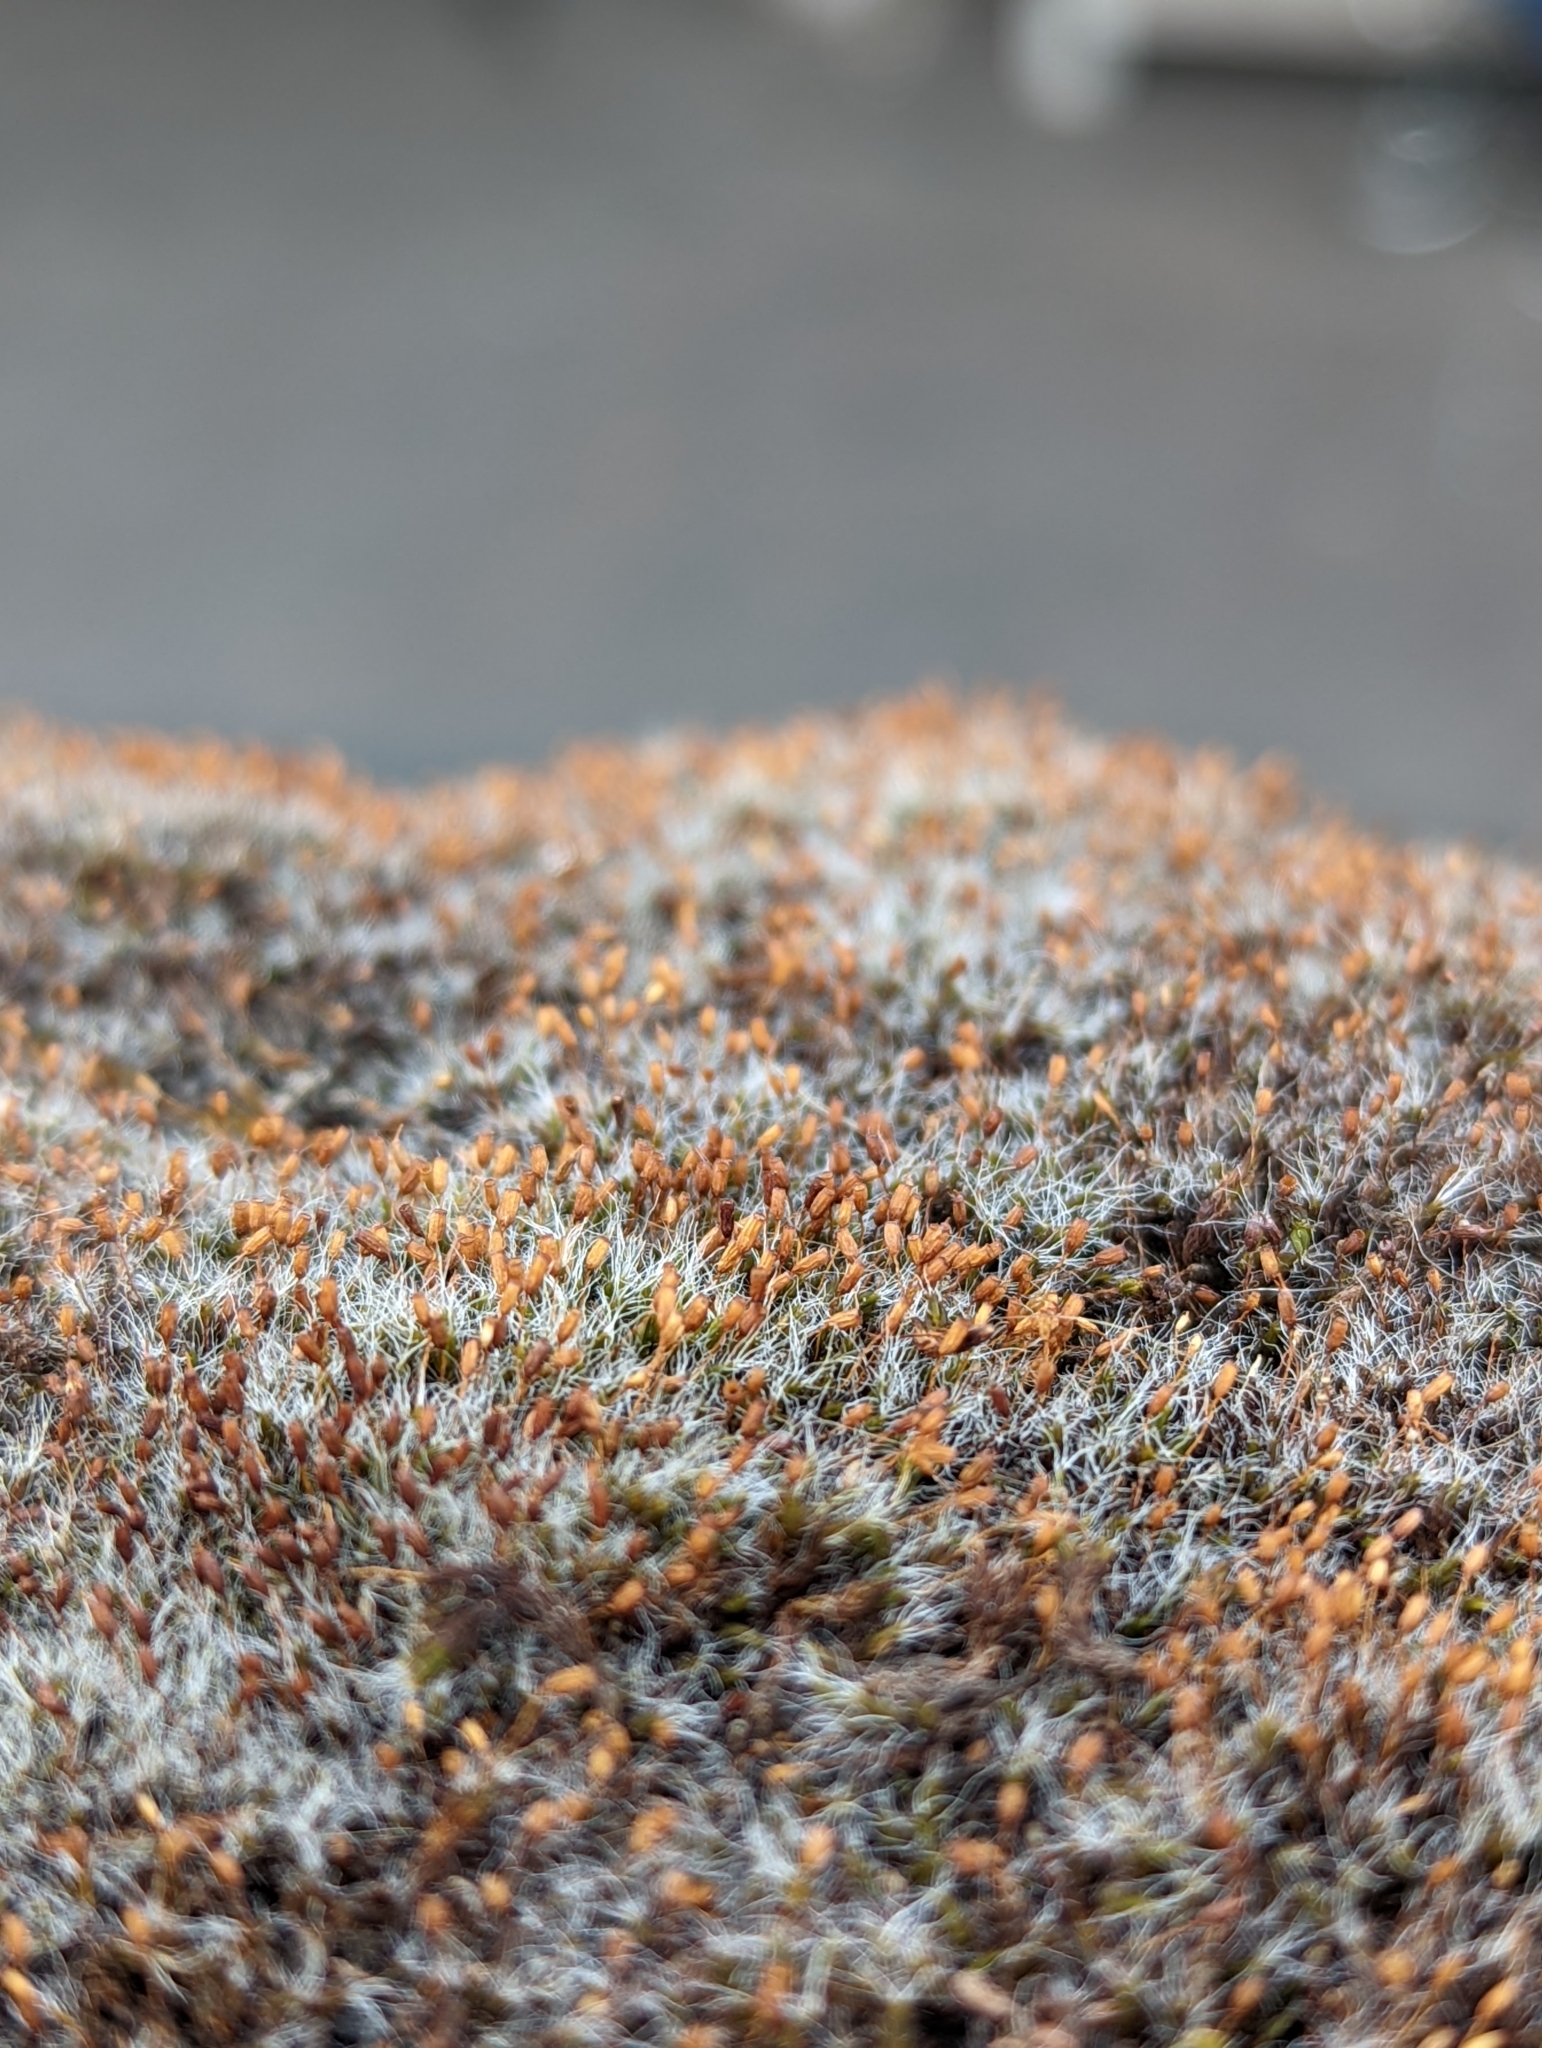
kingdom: Plantae
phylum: Bryophyta
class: Bryopsida
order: Grimmiales
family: Grimmiaceae
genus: Grimmia
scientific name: Grimmia pulvinata
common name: Grey-cushioned grimmia
